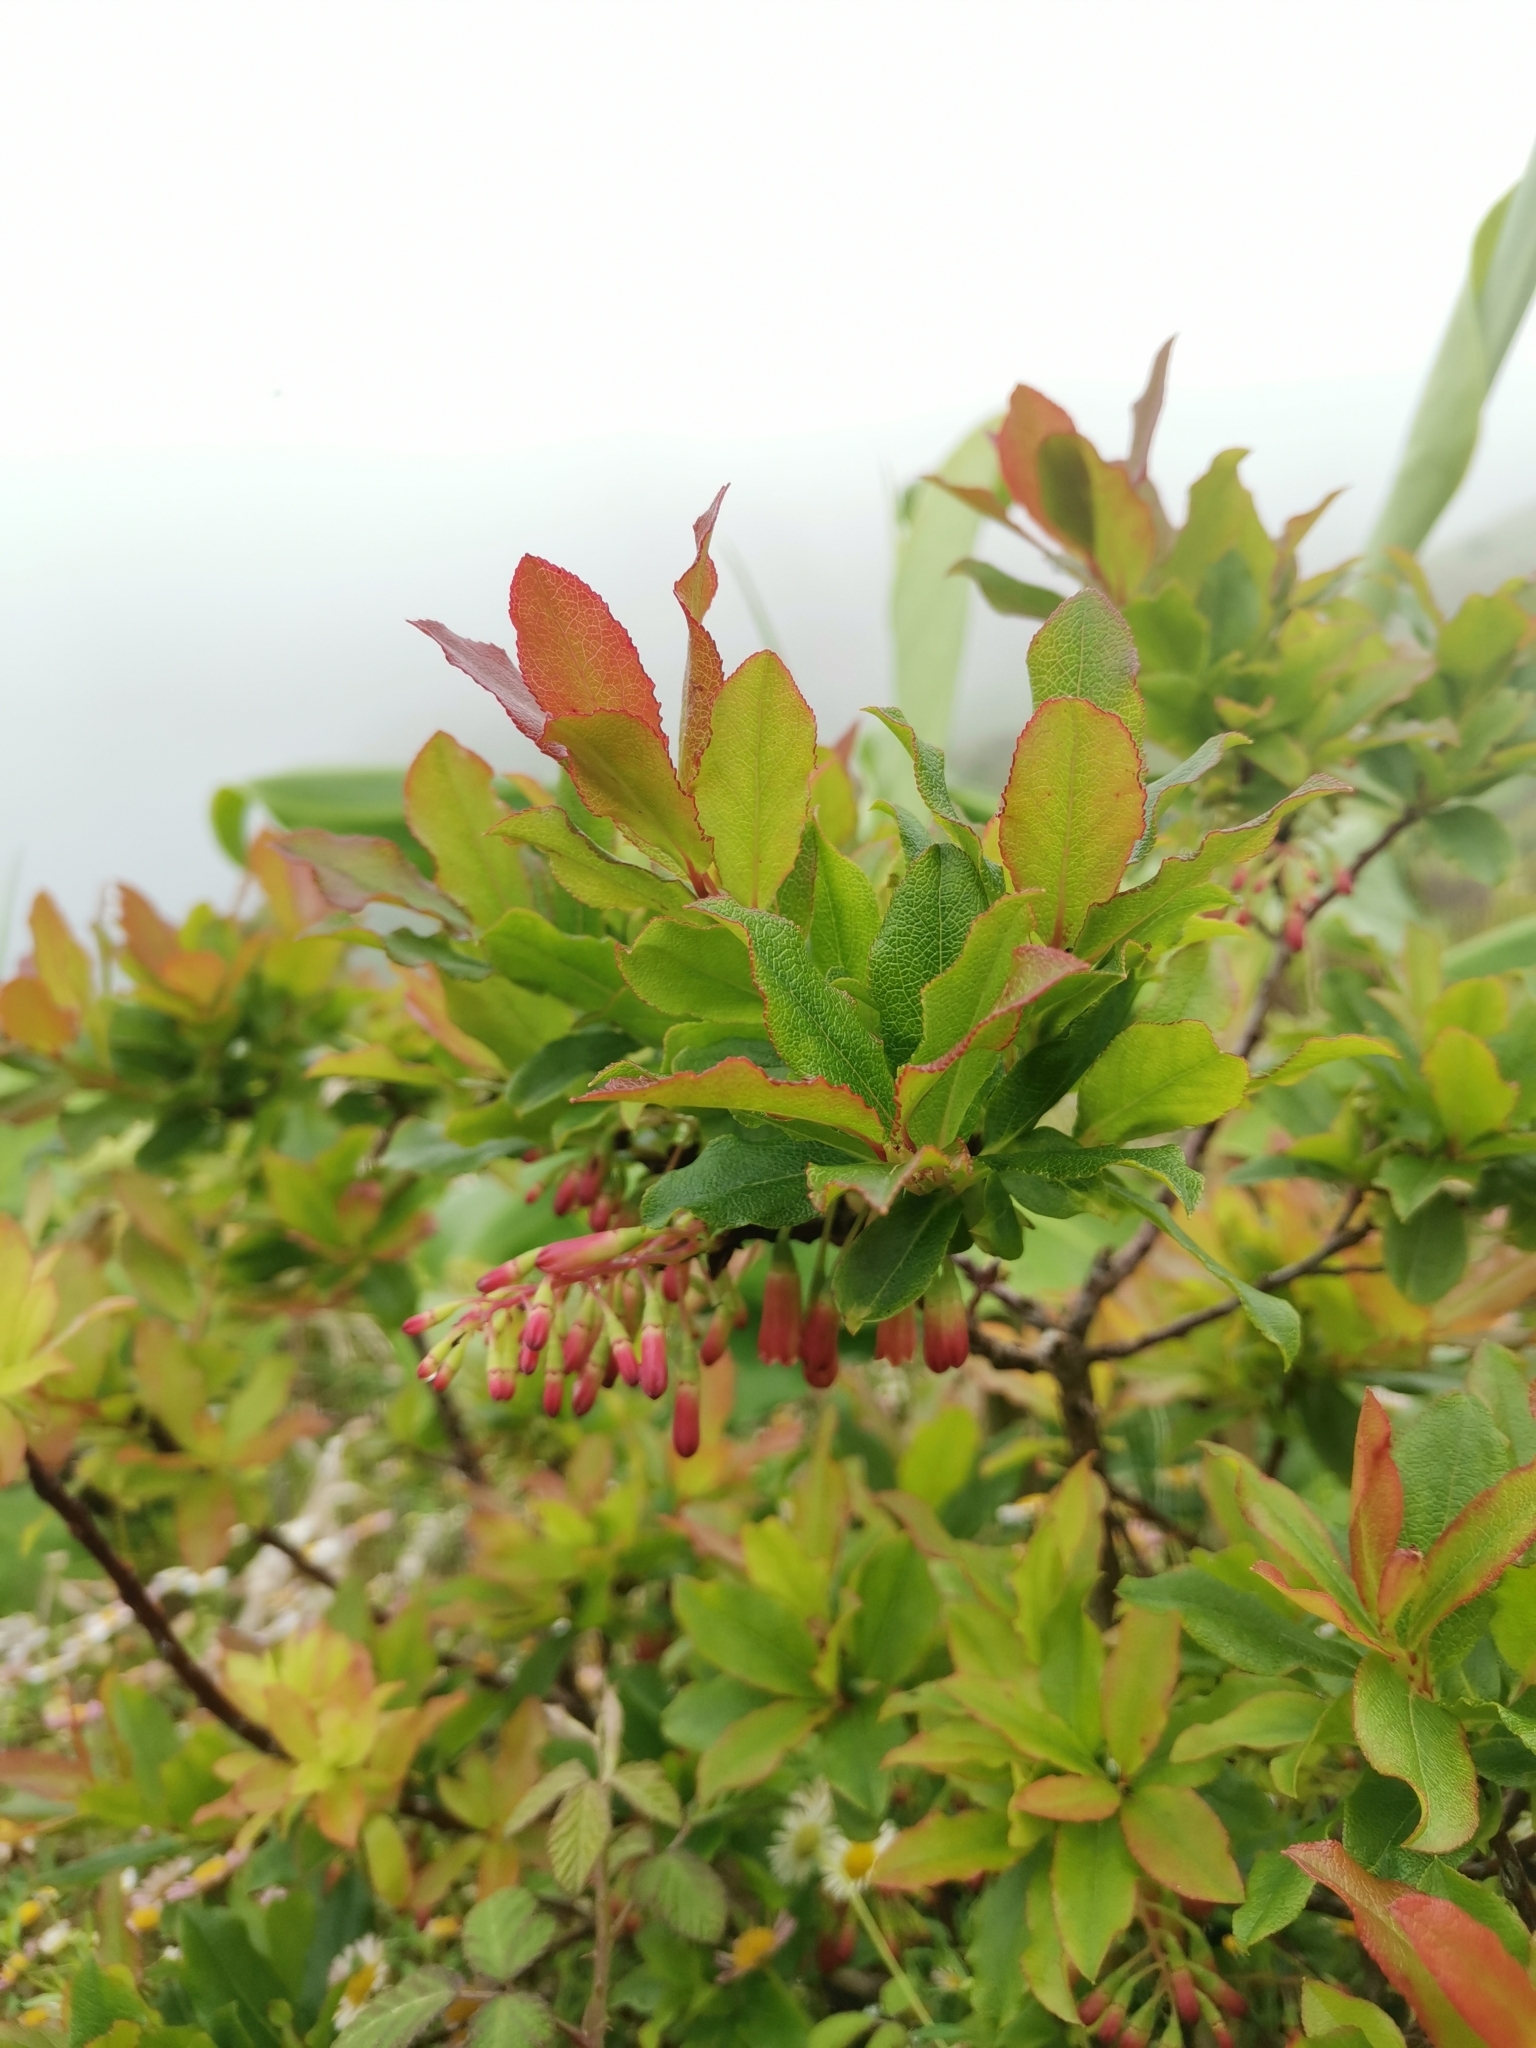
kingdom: Plantae
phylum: Tracheophyta
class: Magnoliopsida
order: Ericales
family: Ericaceae
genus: Vaccinium
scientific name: Vaccinium cylindraceum
